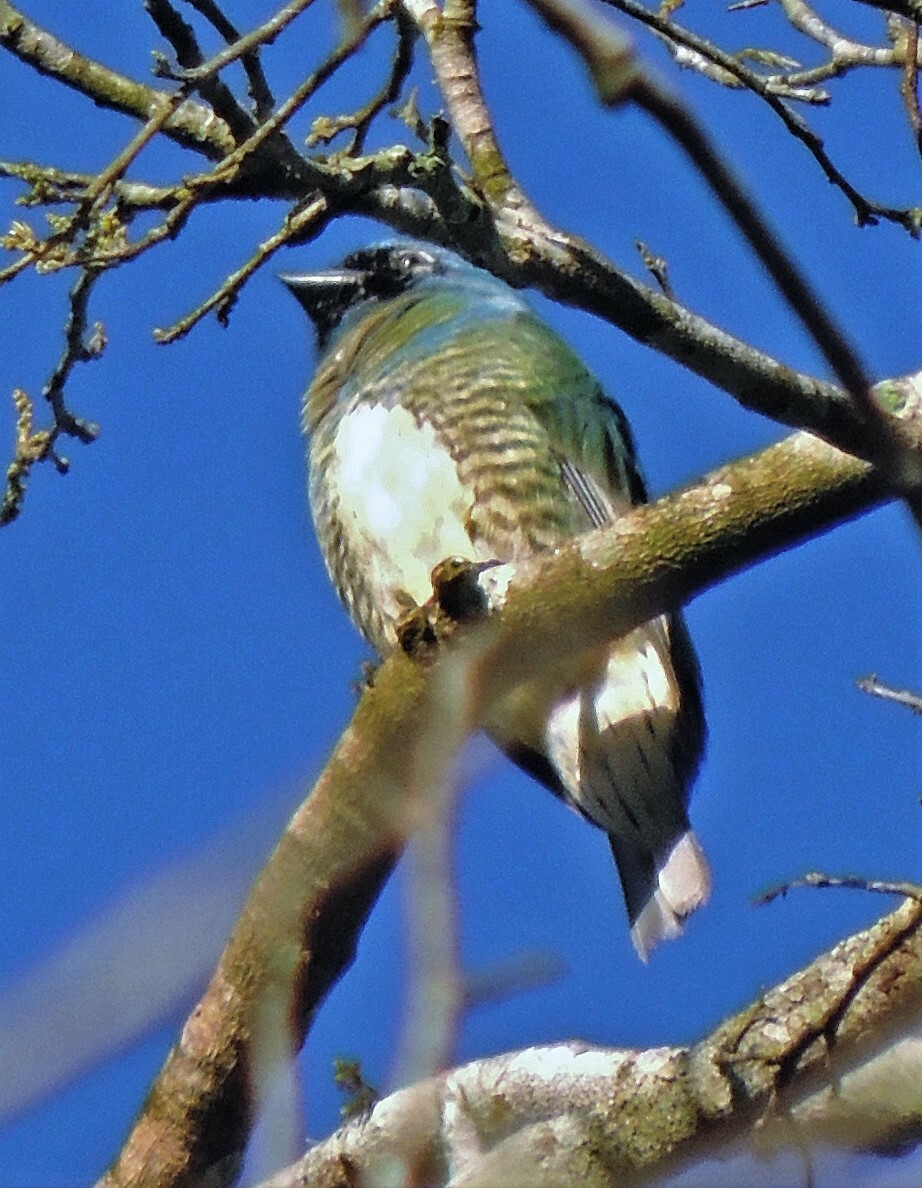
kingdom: Animalia
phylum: Chordata
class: Aves
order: Passeriformes
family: Thraupidae
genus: Tersina
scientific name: Tersina viridis
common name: Swallow tanager
